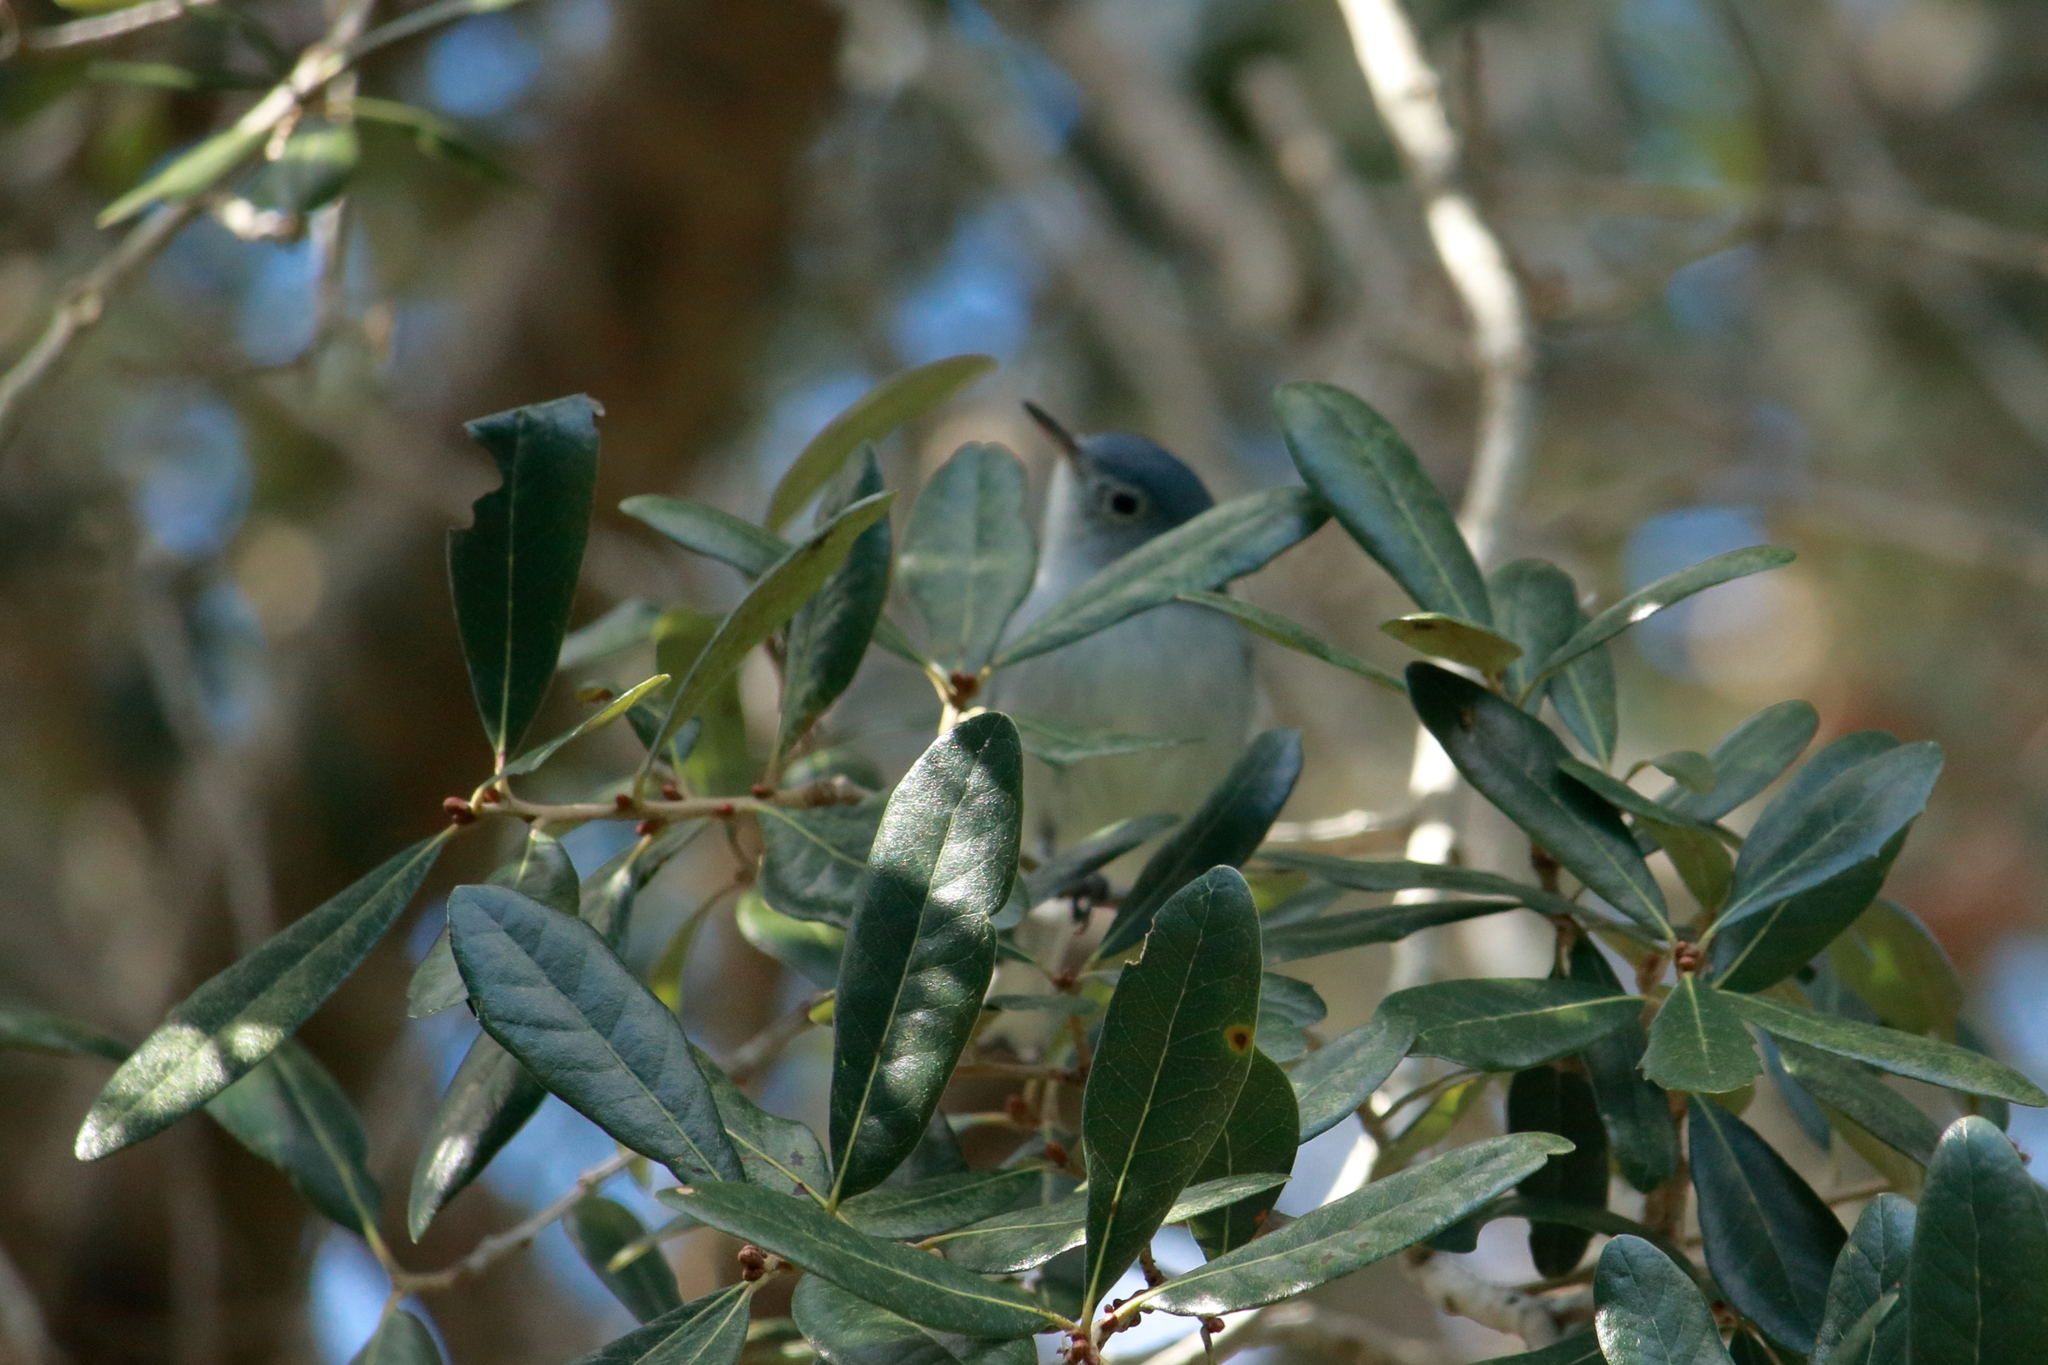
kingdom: Animalia
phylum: Chordata
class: Aves
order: Passeriformes
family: Polioptilidae
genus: Polioptila
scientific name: Polioptila caerulea
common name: Blue-gray gnatcatcher
